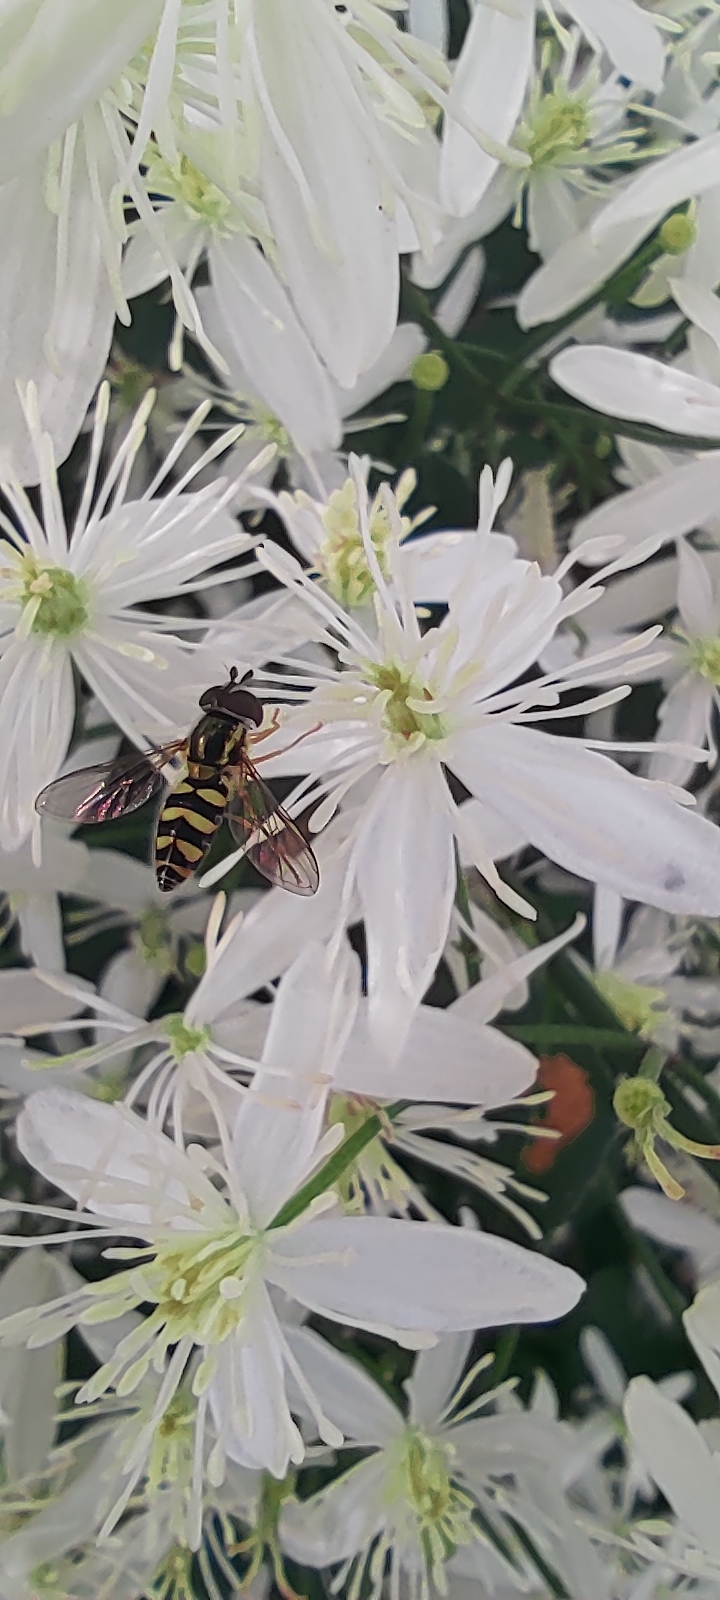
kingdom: Animalia
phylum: Arthropoda
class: Insecta
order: Diptera
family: Syrphidae
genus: Epistrophella
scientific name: Epistrophella emarginata
